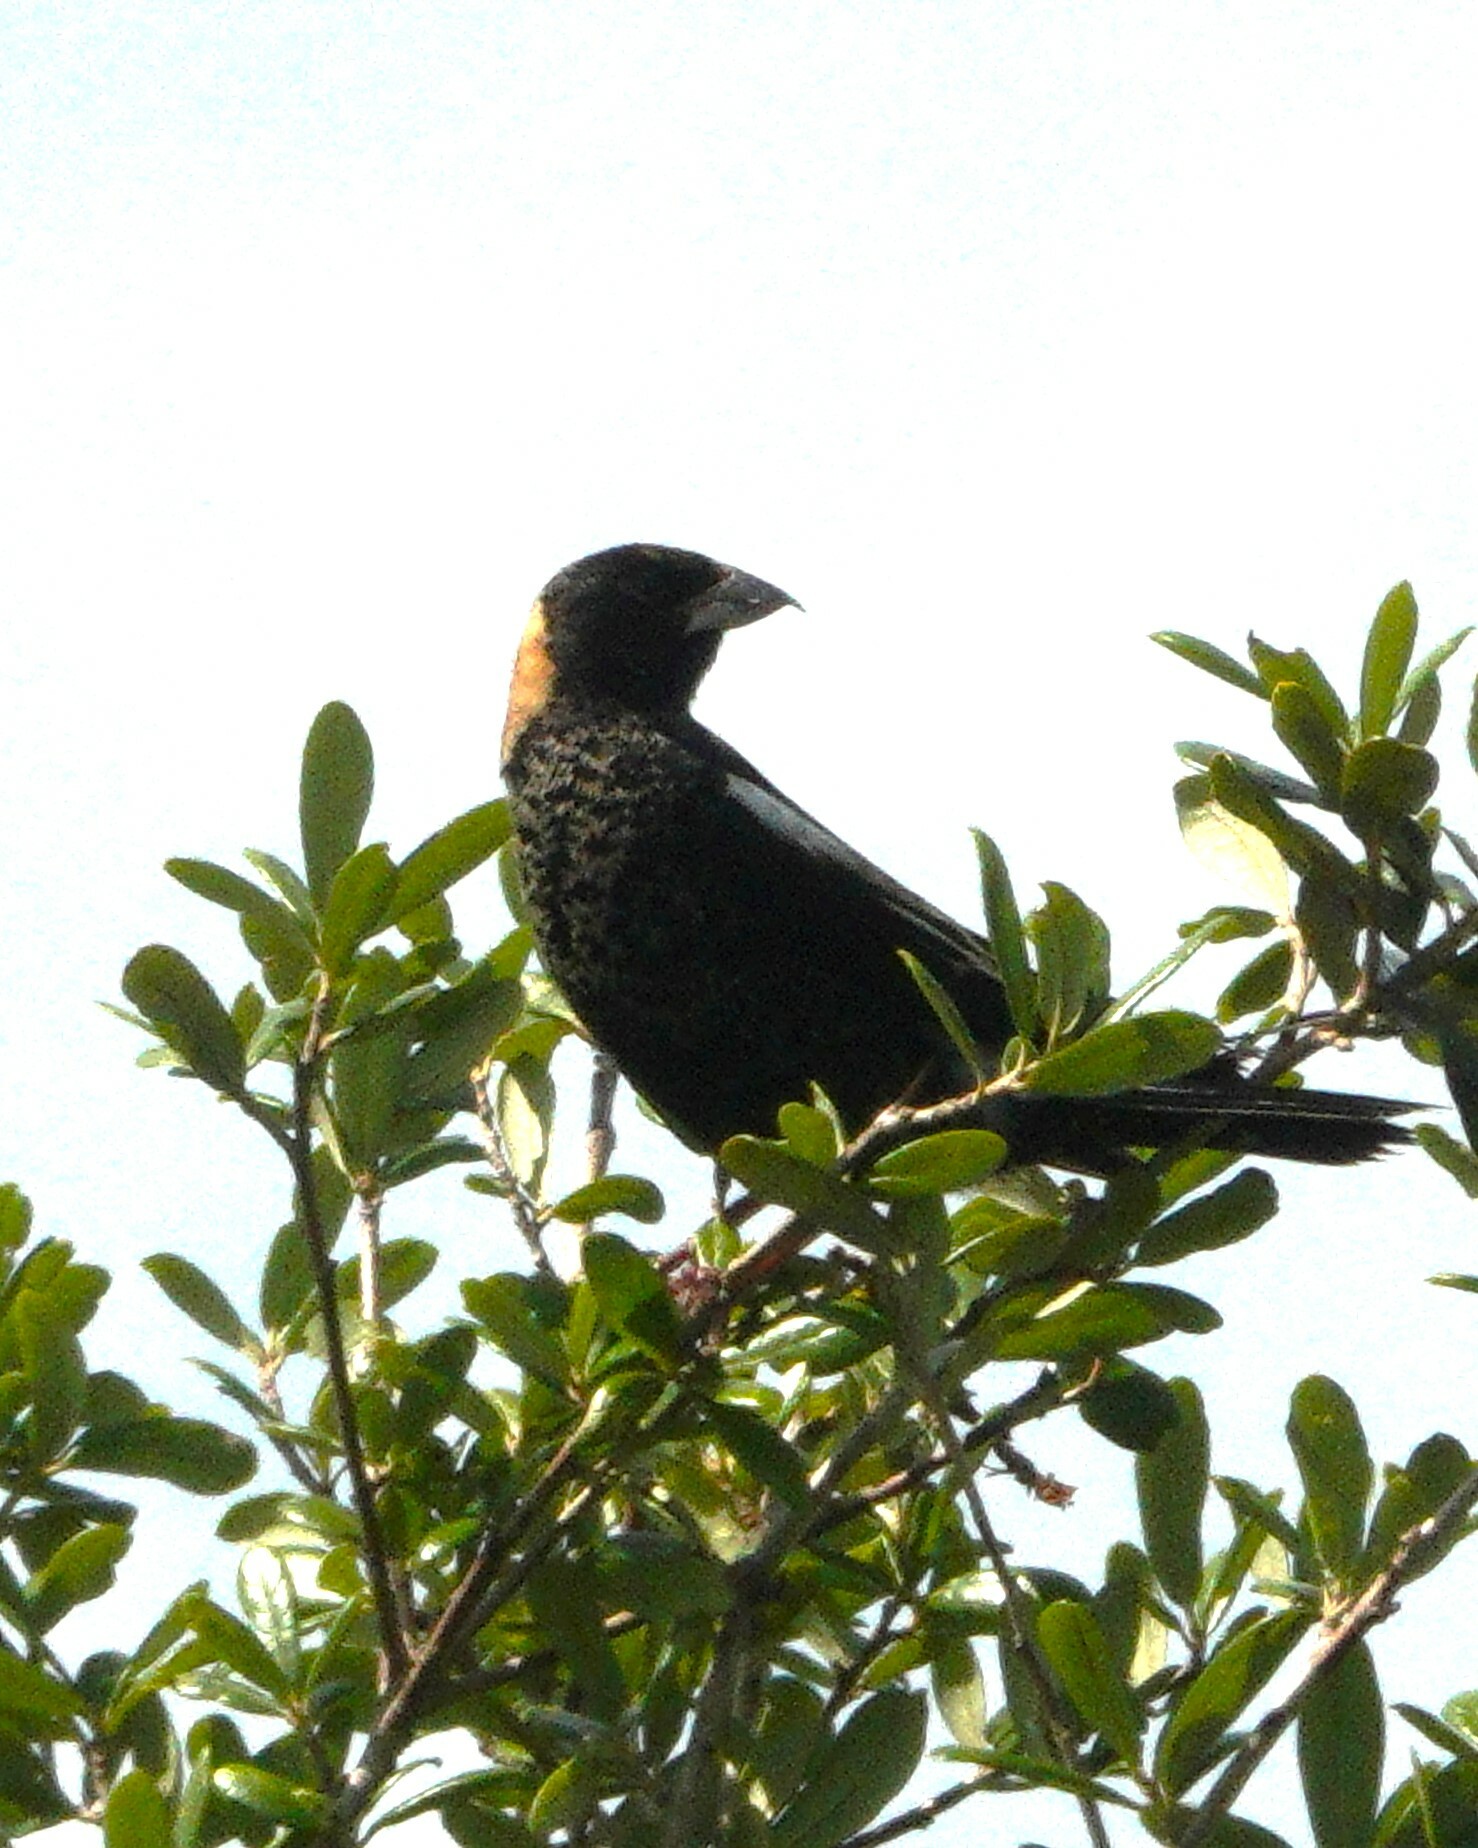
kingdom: Animalia
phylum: Chordata
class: Aves
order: Passeriformes
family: Icteridae
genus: Dolichonyx
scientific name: Dolichonyx oryzivorus
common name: Bobolink
